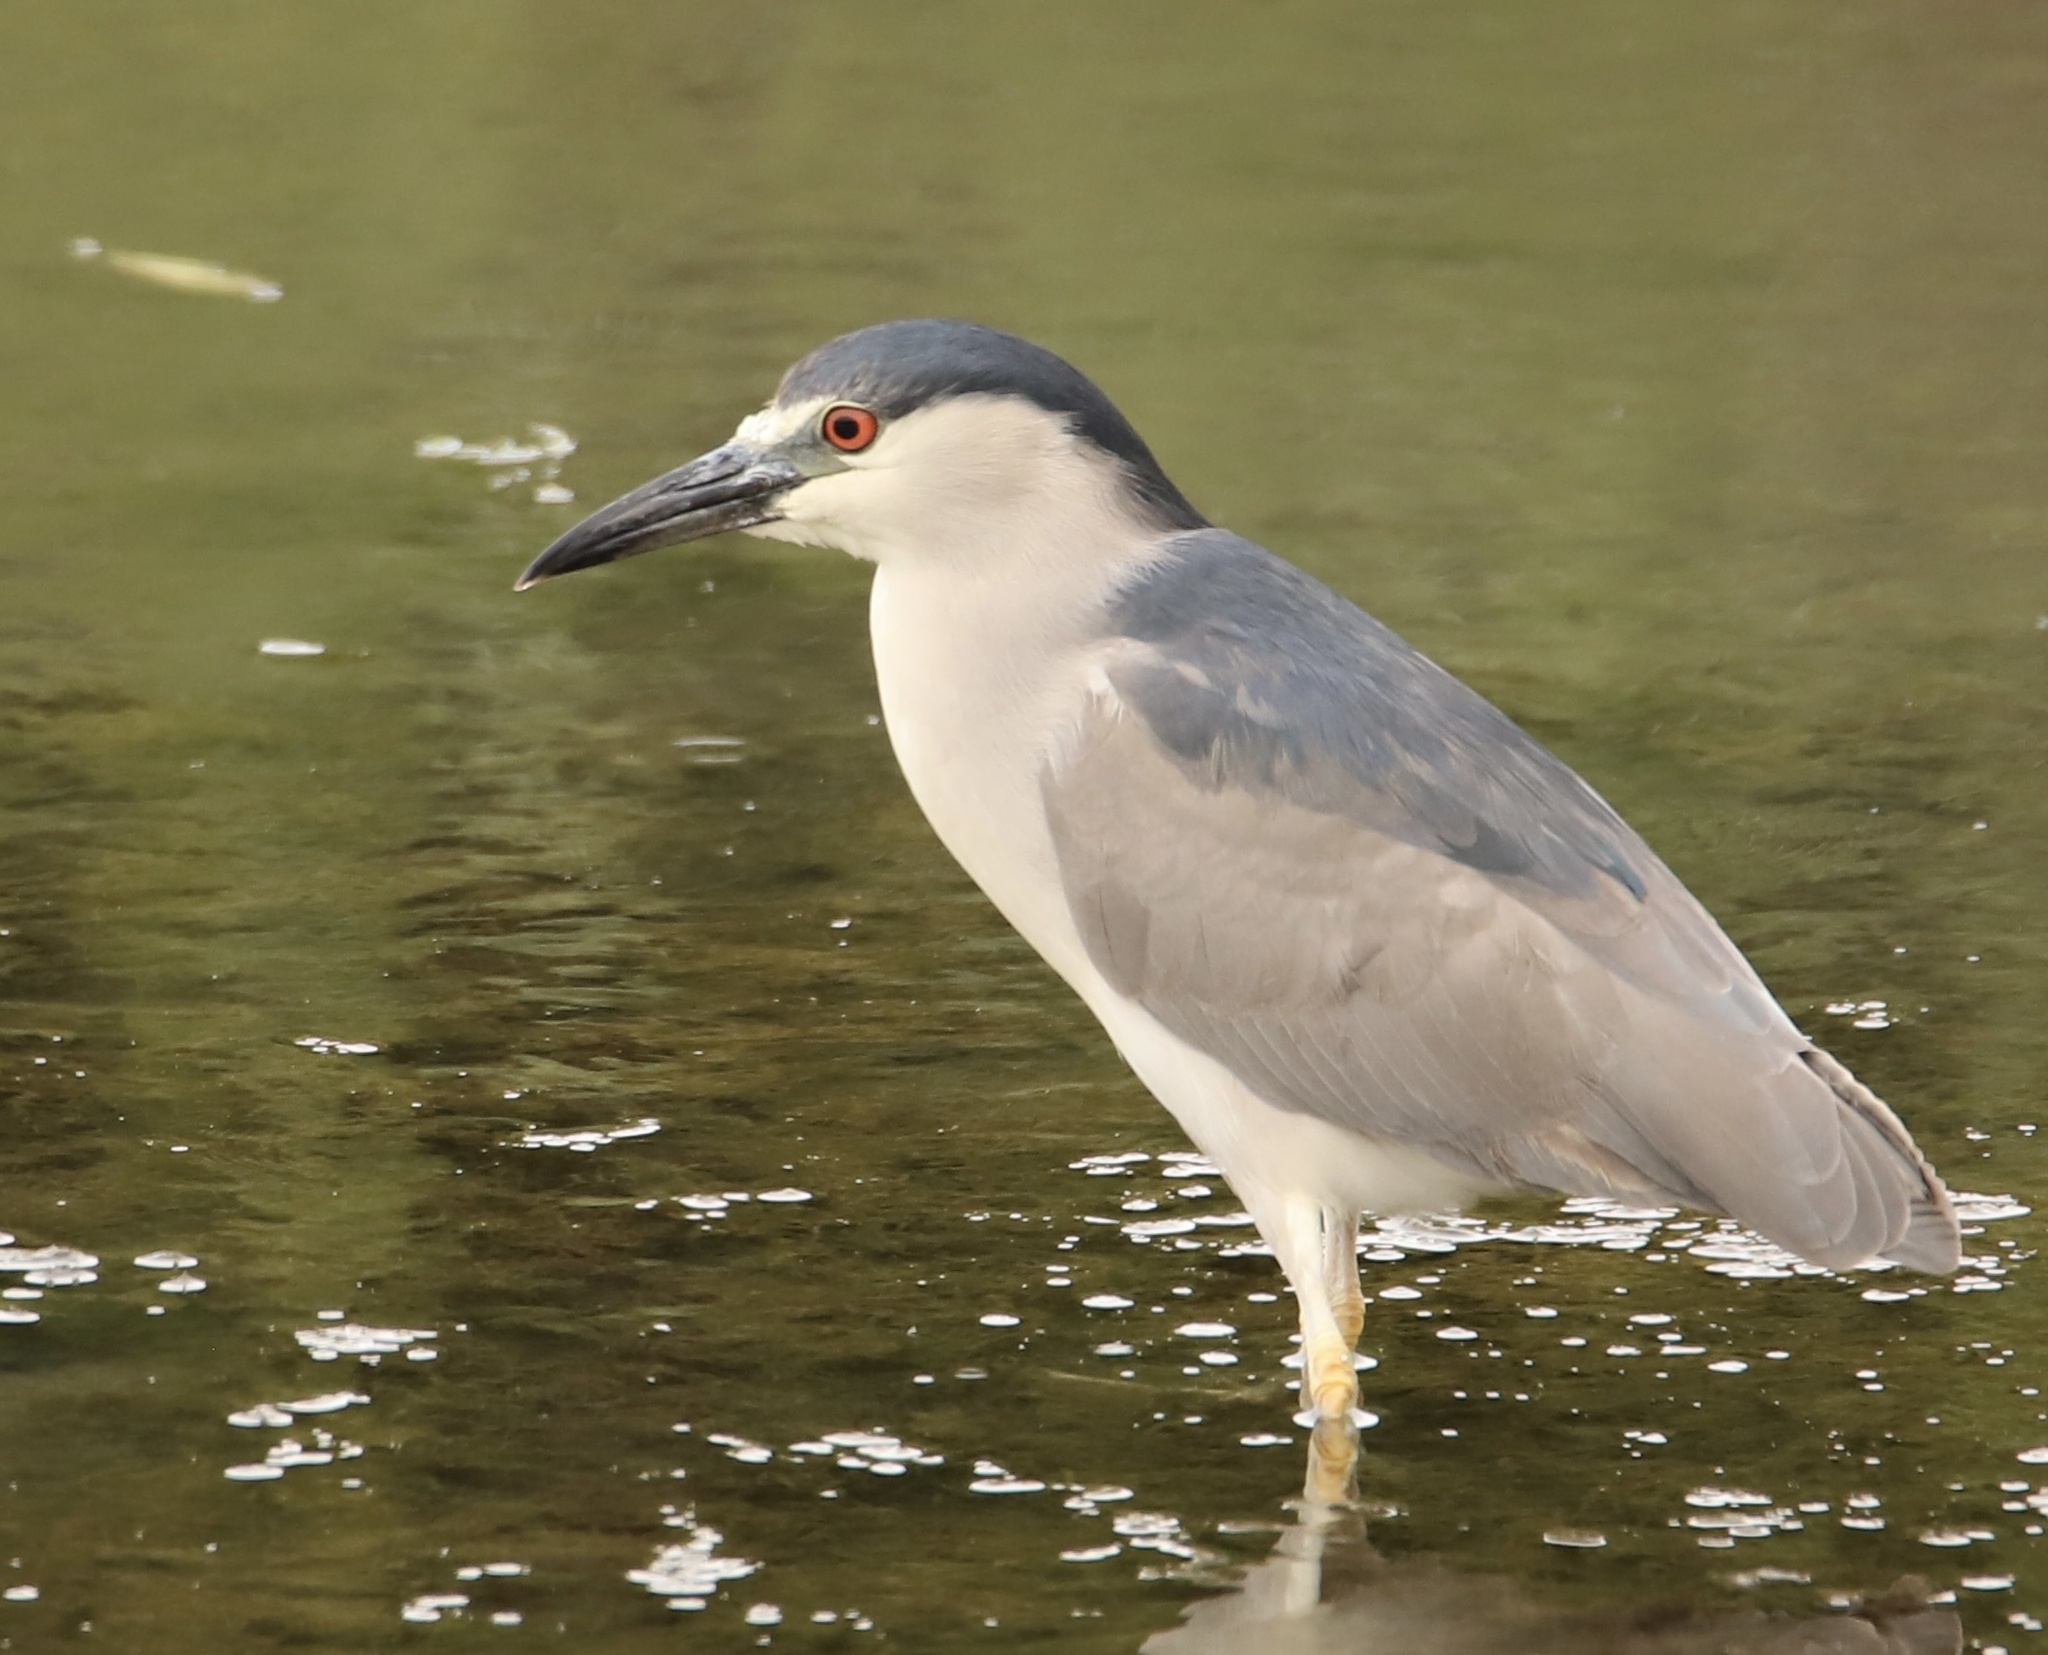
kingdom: Animalia
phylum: Chordata
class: Aves
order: Pelecaniformes
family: Ardeidae
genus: Nycticorax
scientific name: Nycticorax nycticorax
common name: Black-crowned night heron
